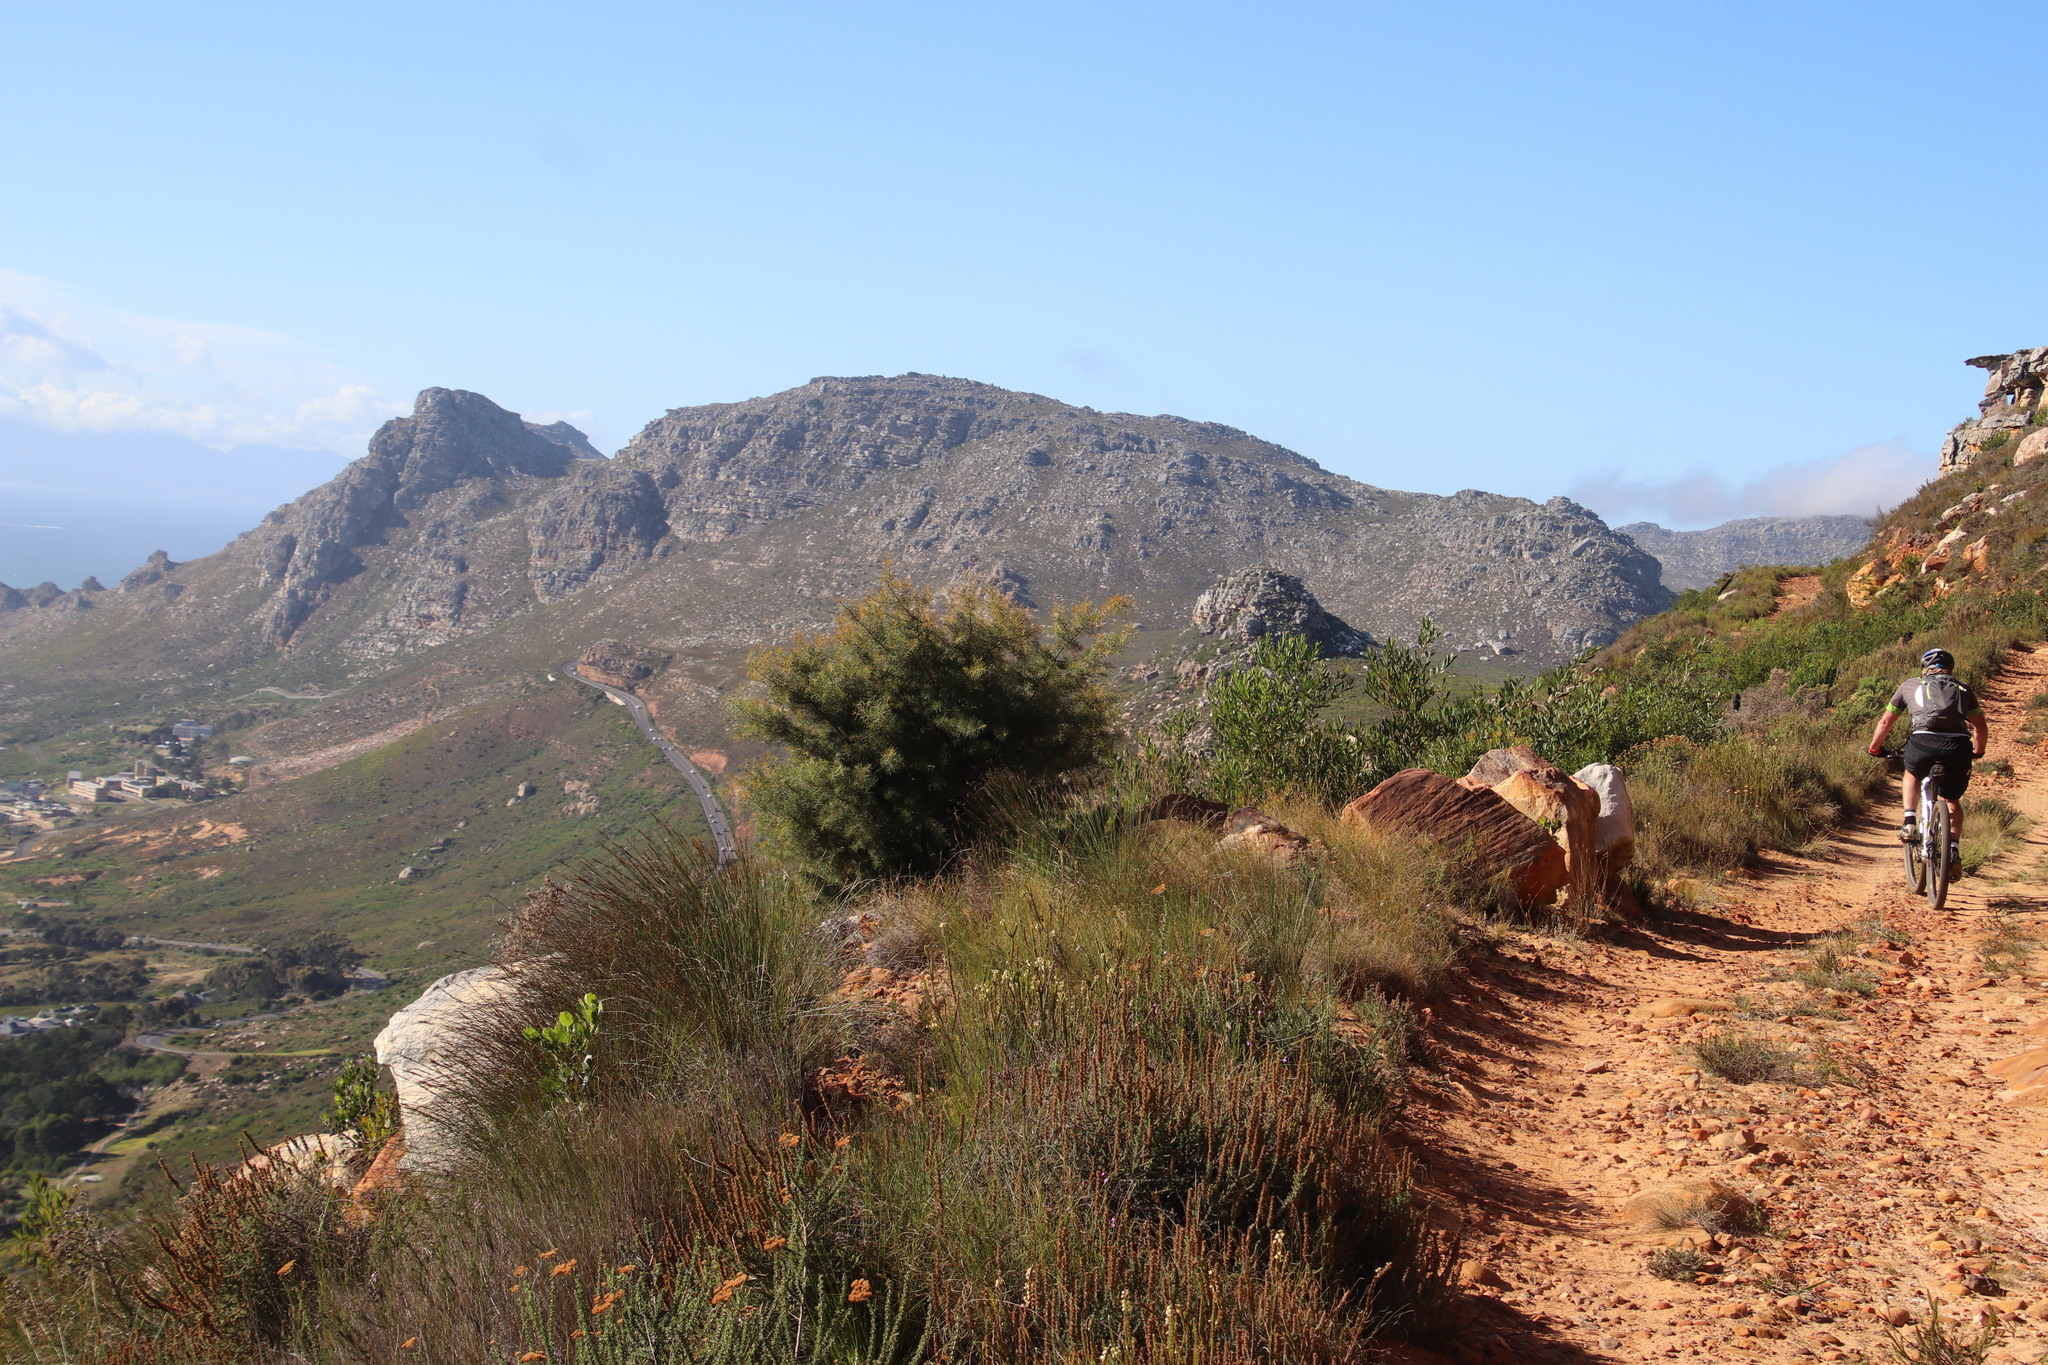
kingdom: Plantae
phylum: Tracheophyta
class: Magnoliopsida
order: Proteales
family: Proteaceae
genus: Hakea
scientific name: Hakea sericea
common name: Needle bush
